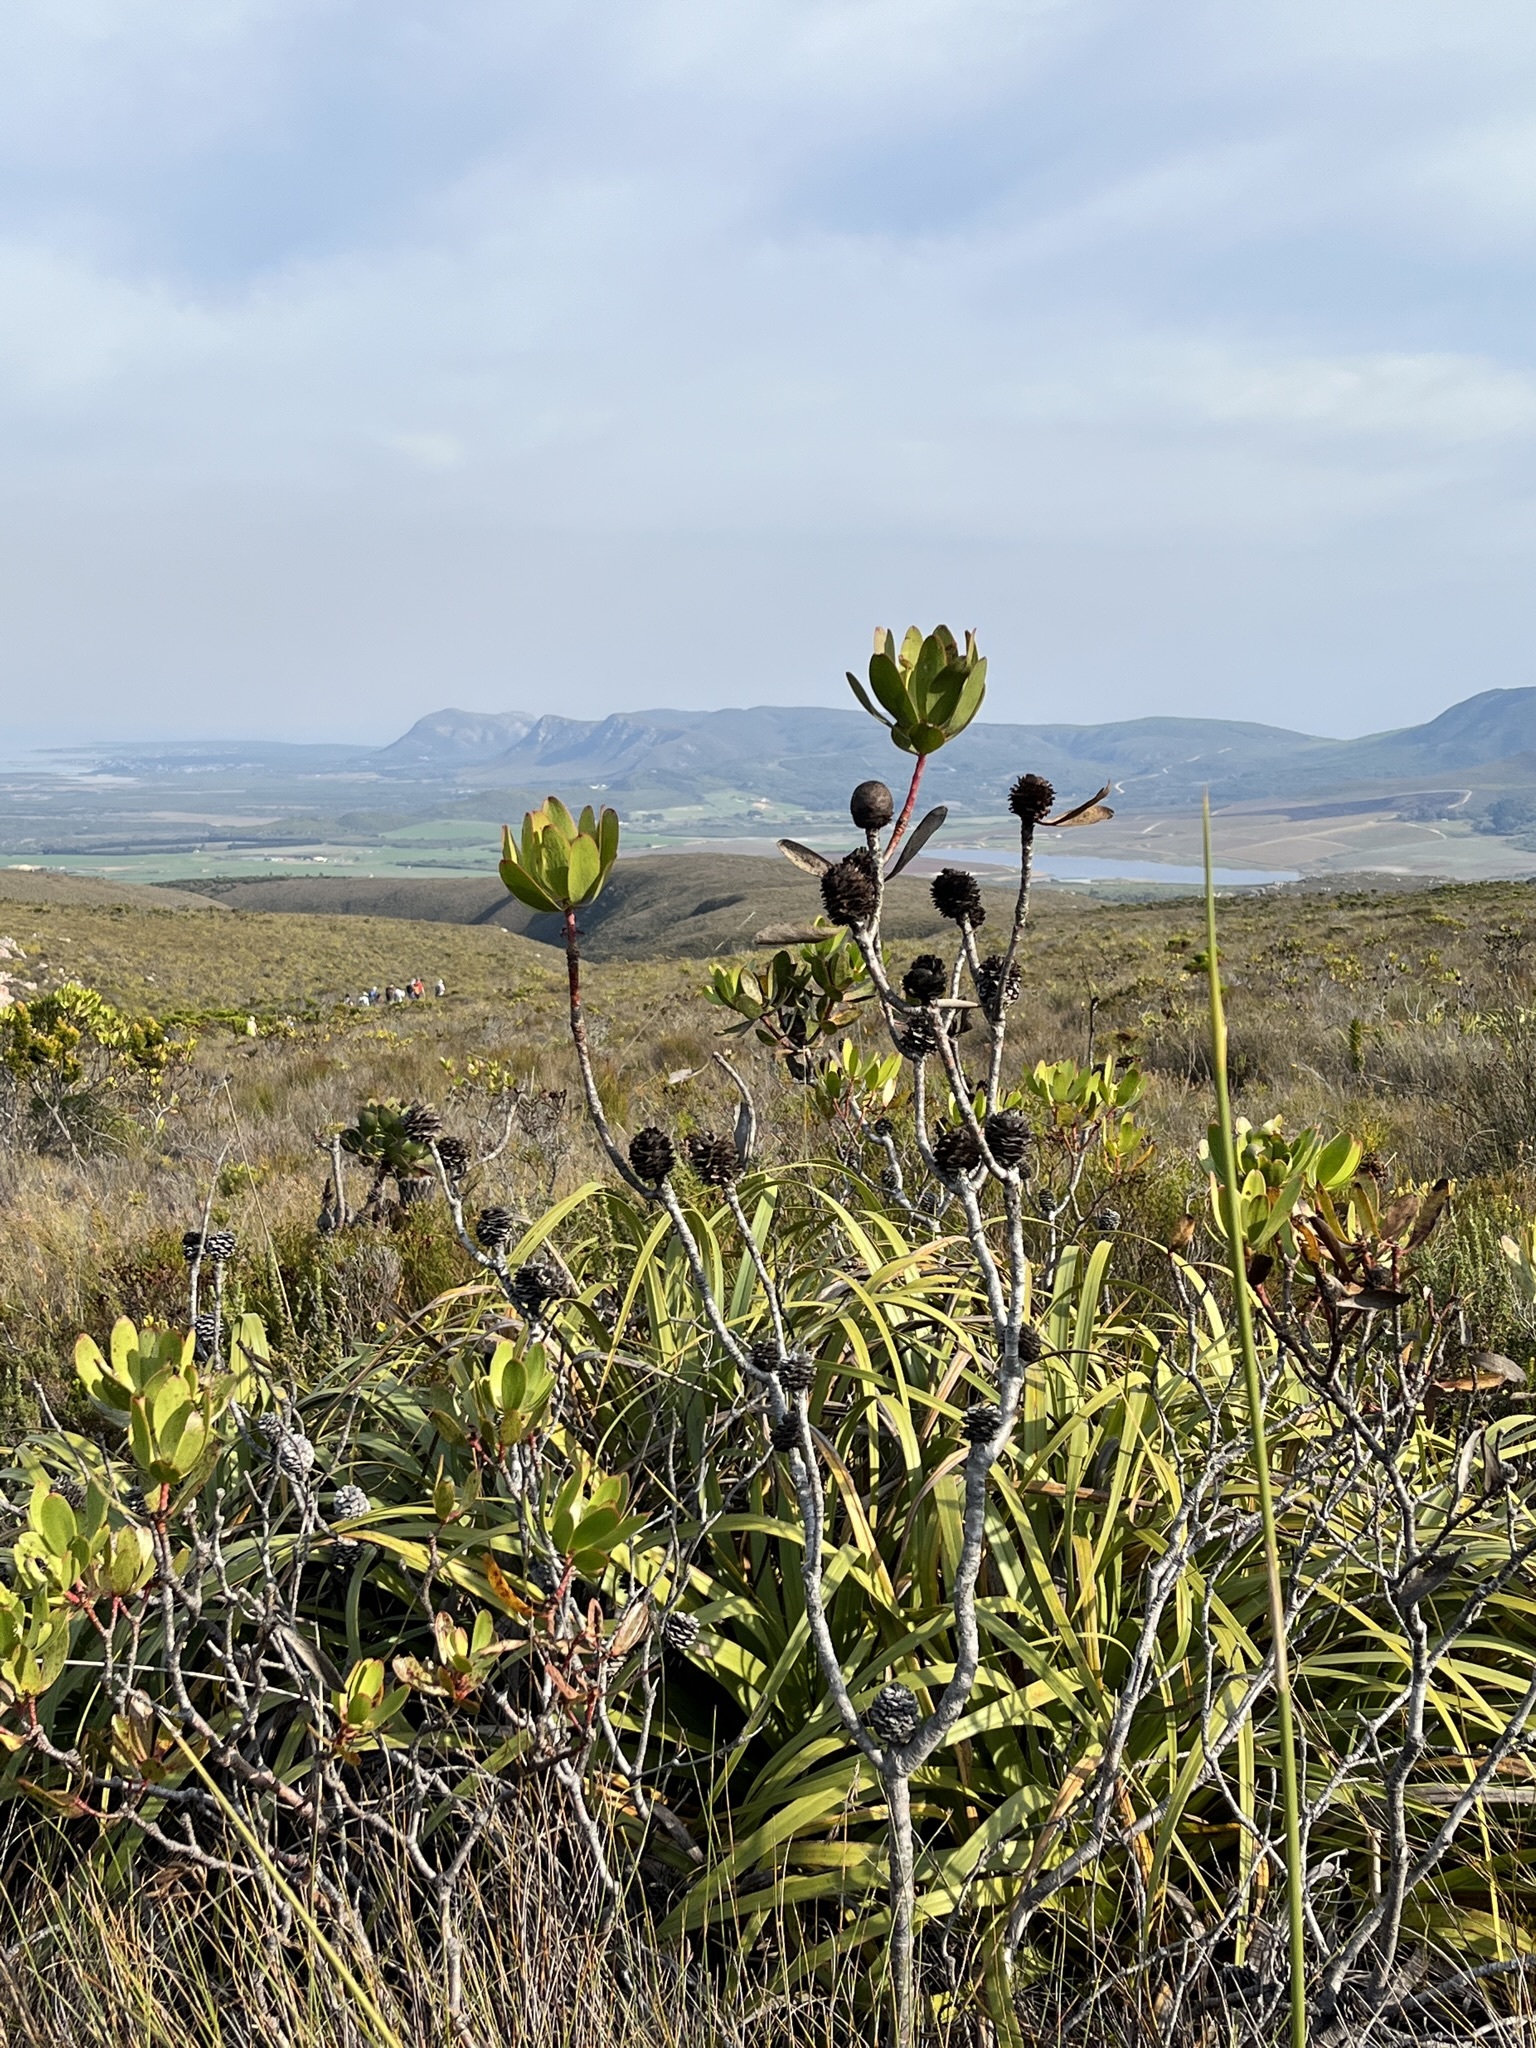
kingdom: Plantae
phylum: Tracheophyta
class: Magnoliopsida
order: Proteales
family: Proteaceae
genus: Leucadendron
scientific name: Leucadendron gandogeri
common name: Broad-leaf conebush
